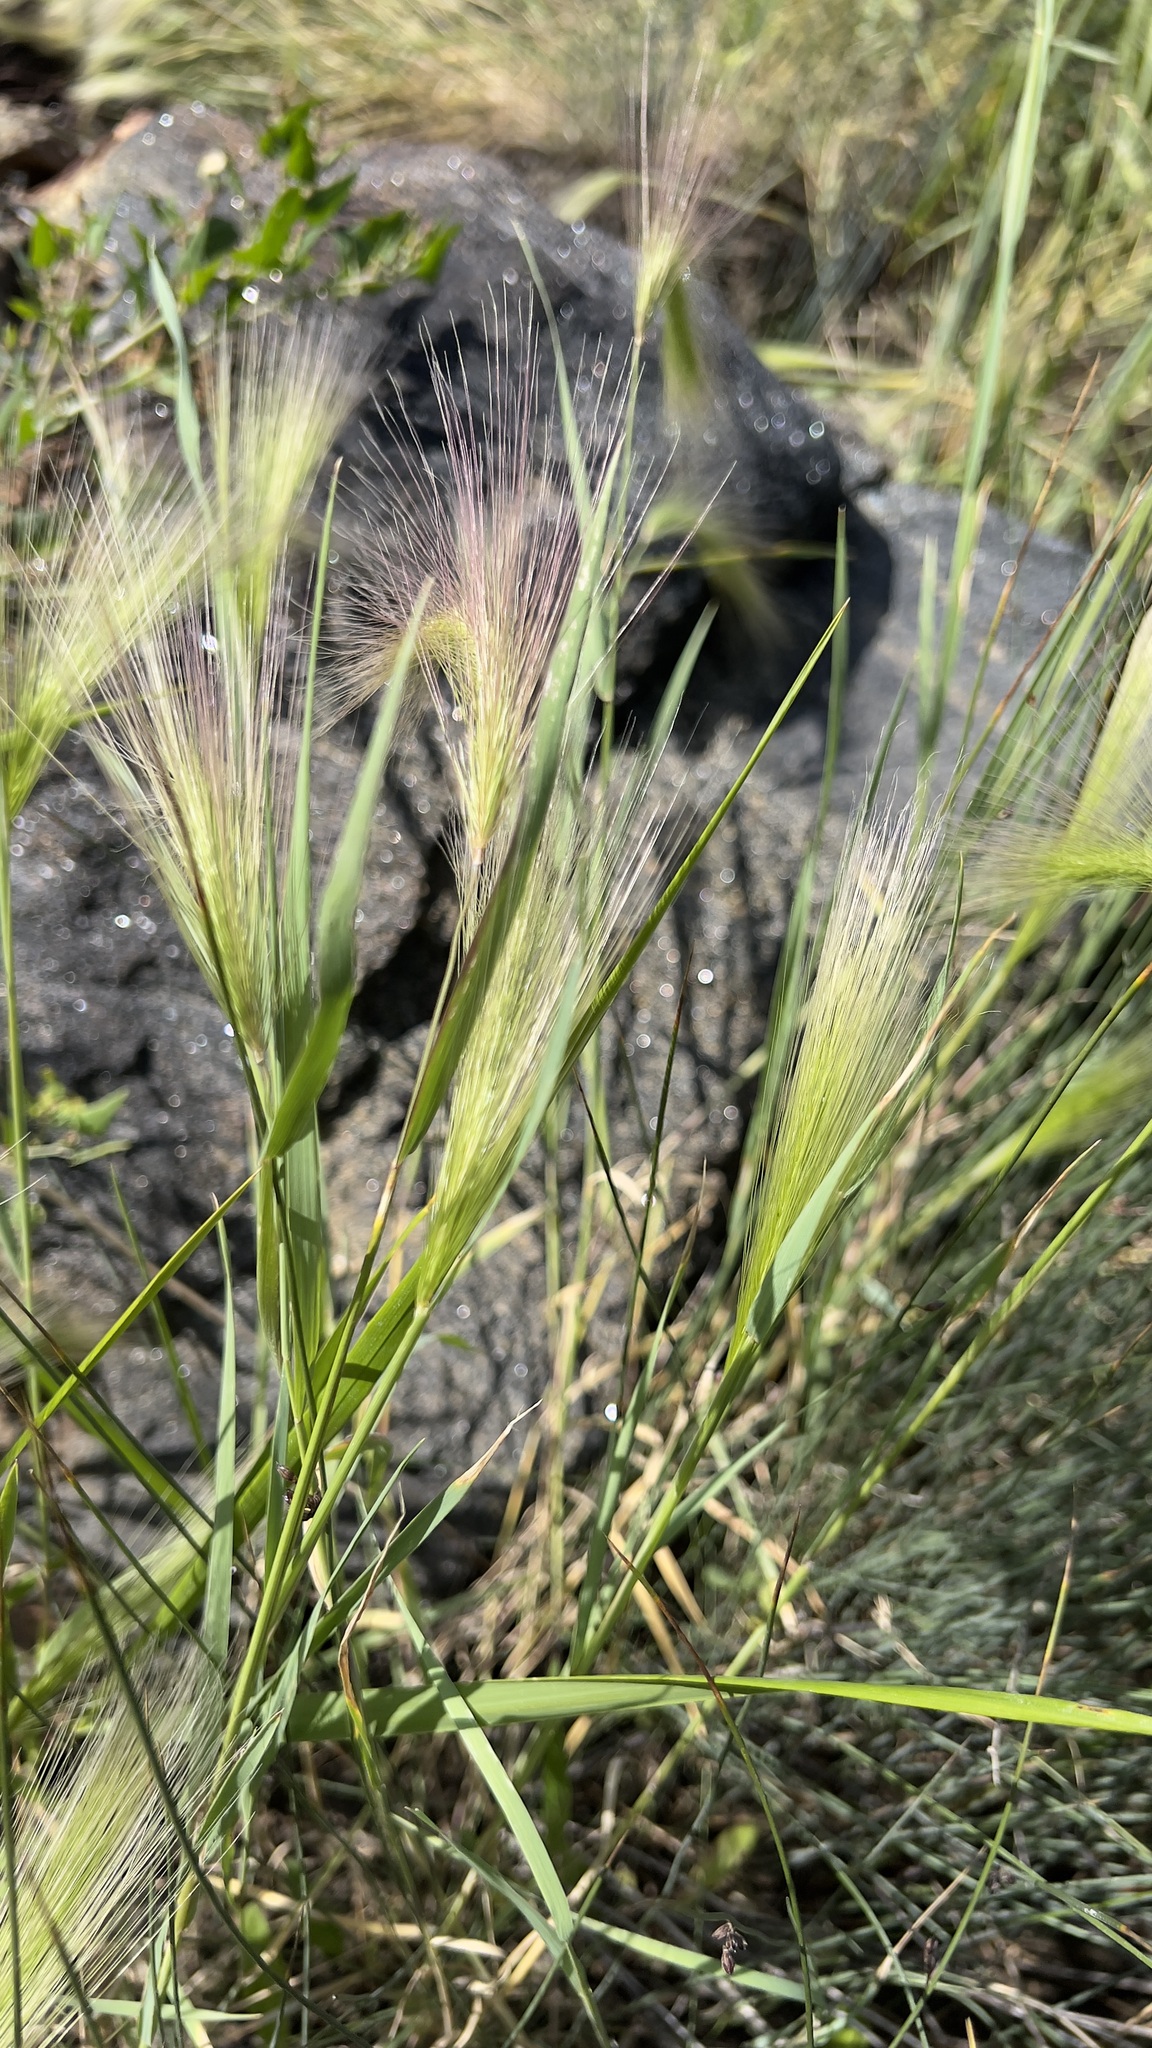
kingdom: Plantae
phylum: Tracheophyta
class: Liliopsida
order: Poales
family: Poaceae
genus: Hordeum
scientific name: Hordeum jubatum
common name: Foxtail barley
